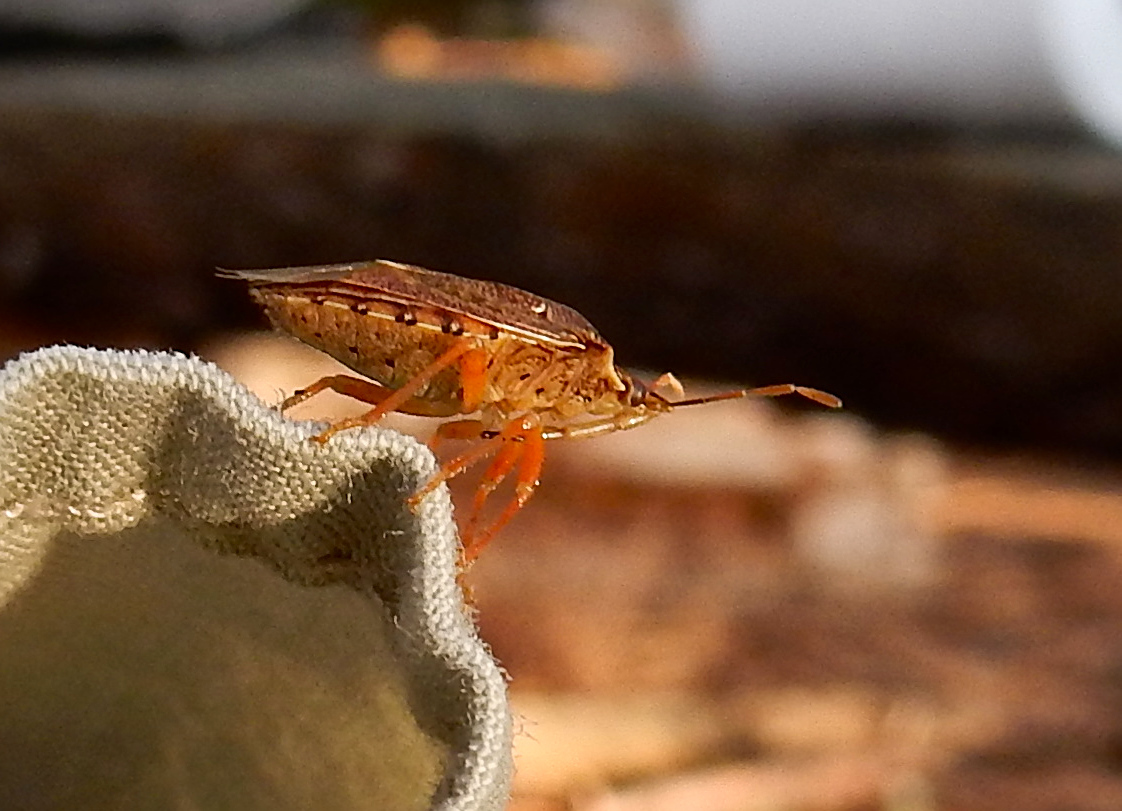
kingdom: Animalia
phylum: Arthropoda
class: Insecta
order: Hemiptera
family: Pentatomidae
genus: Podisus
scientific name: Podisus
